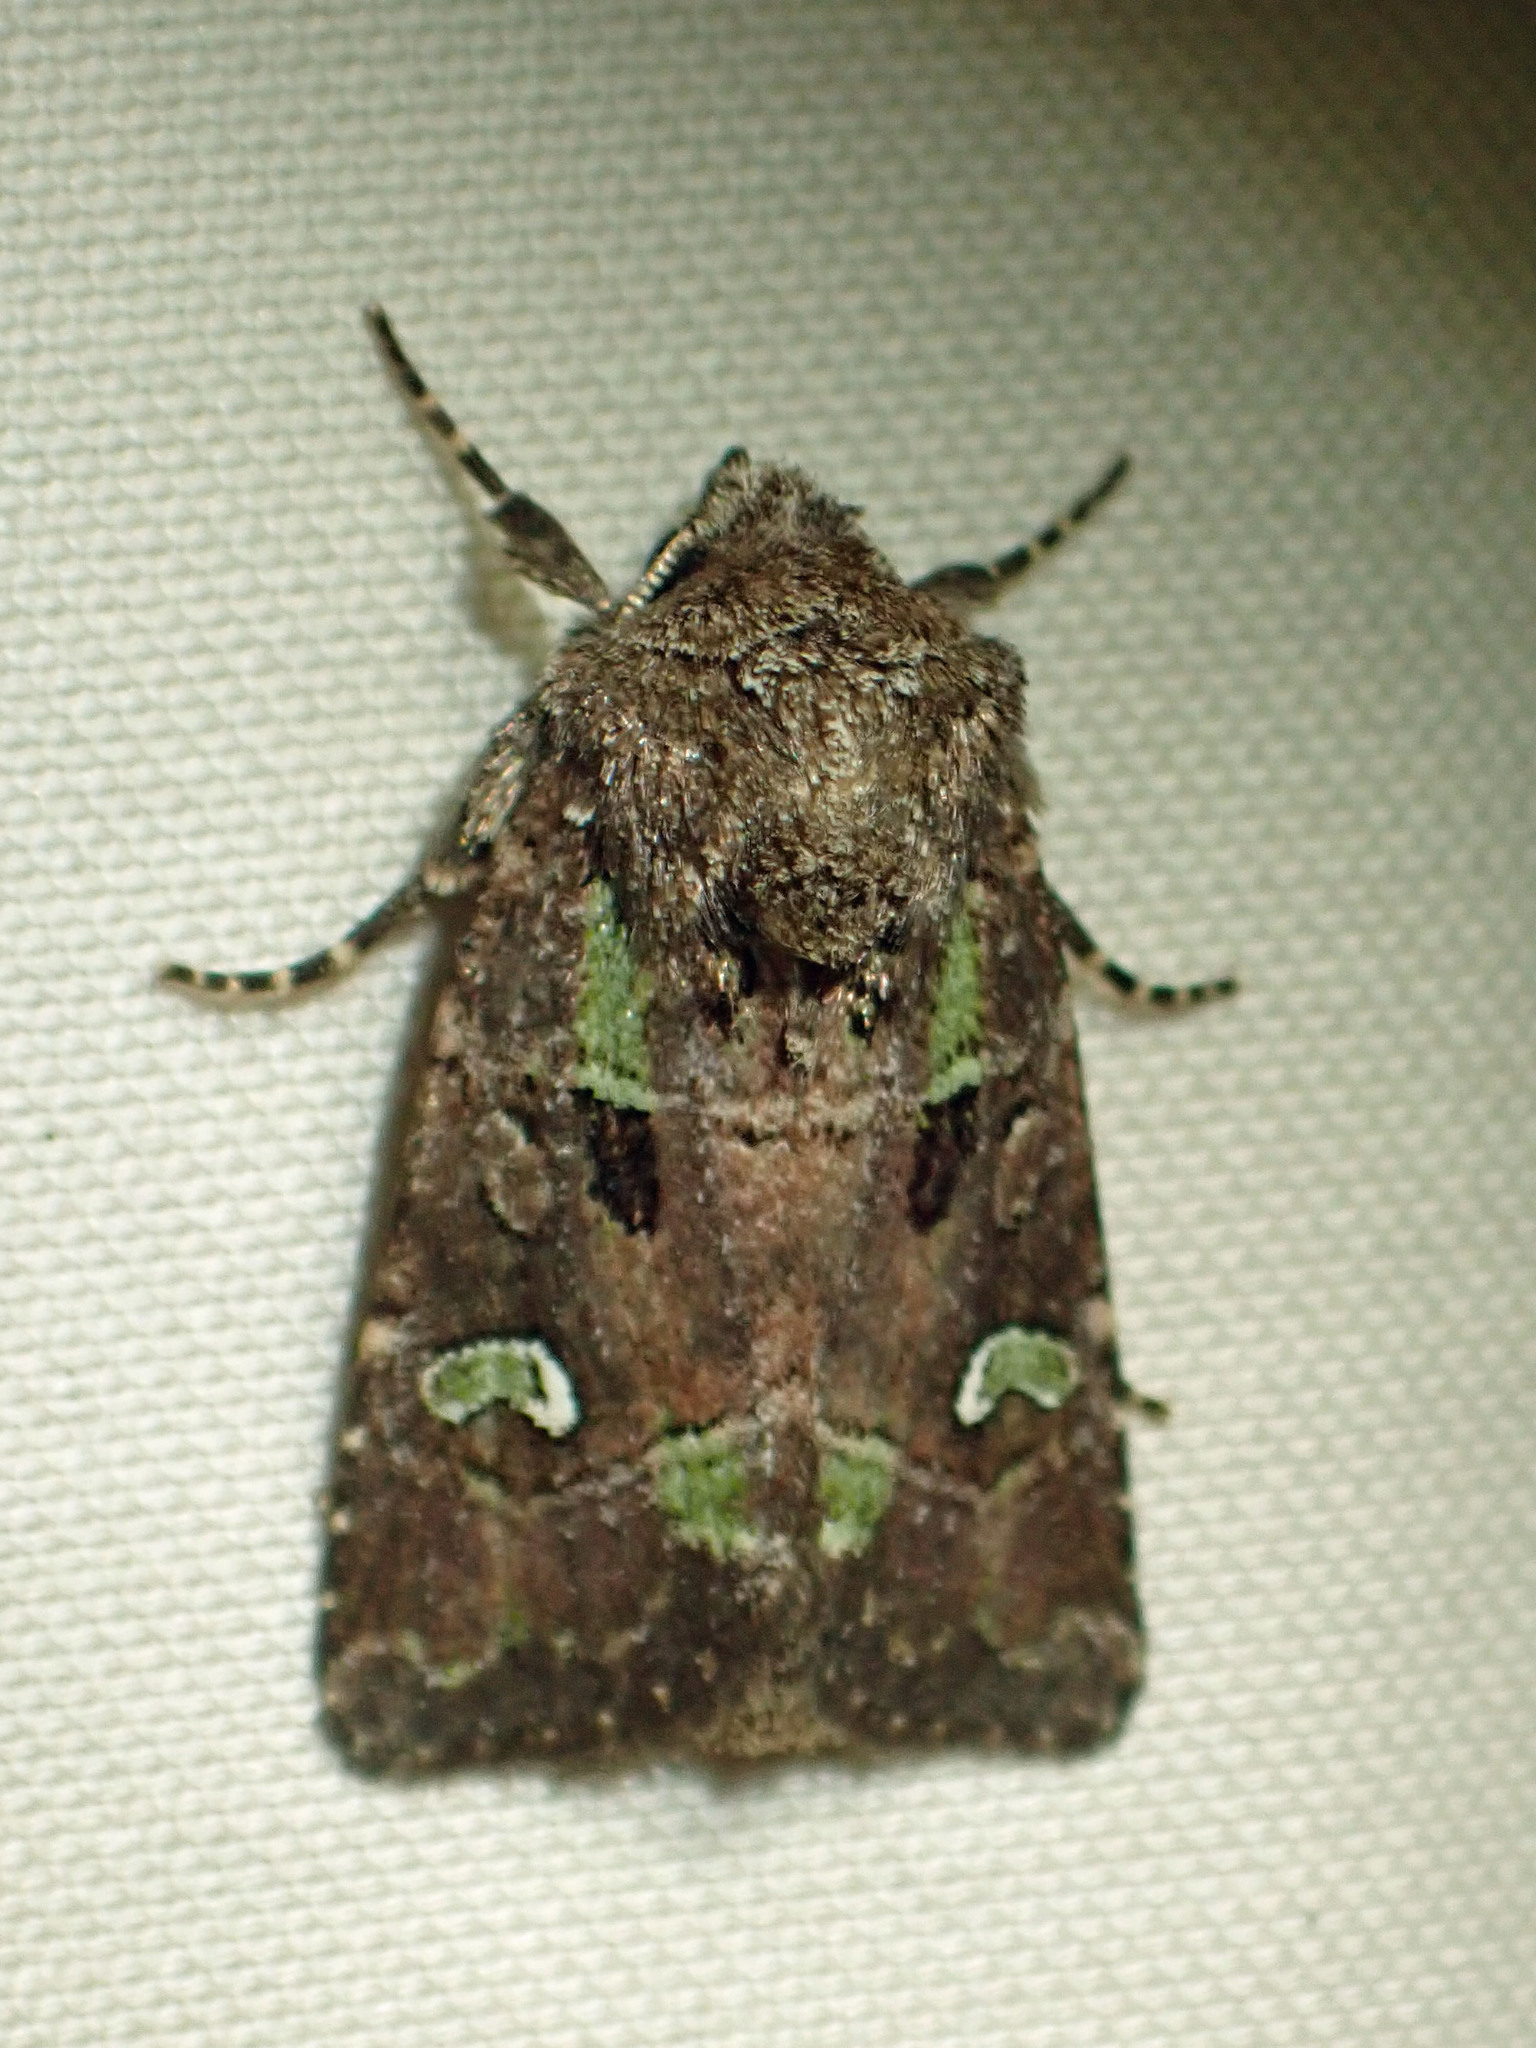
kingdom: Animalia
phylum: Arthropoda
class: Insecta
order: Lepidoptera
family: Noctuidae
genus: Lacinipolia
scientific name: Lacinipolia renigera
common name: Kidney-spotted minor
